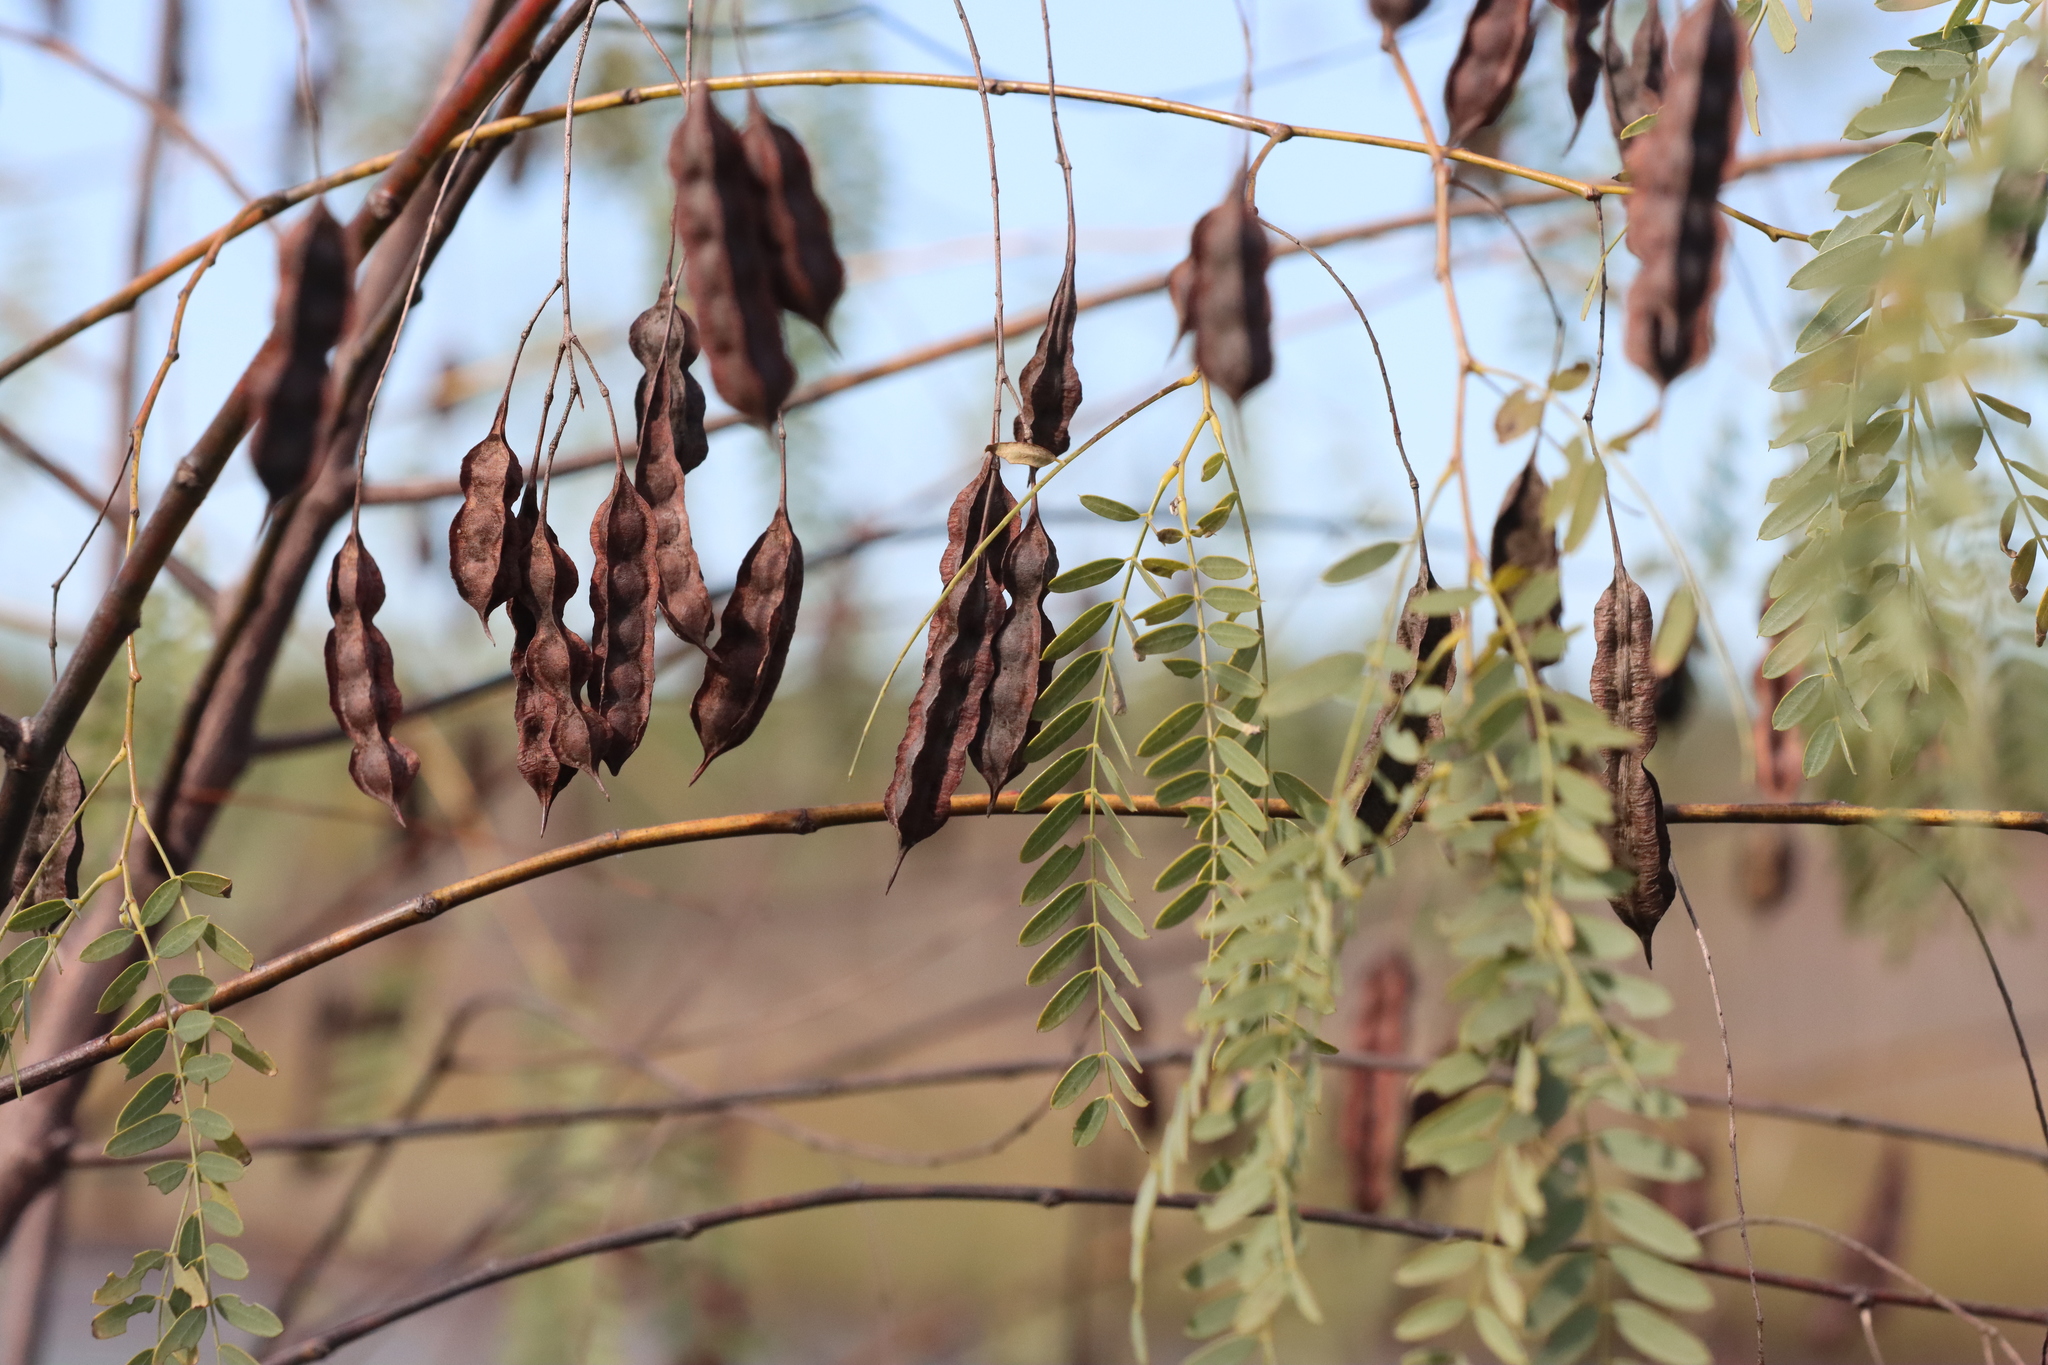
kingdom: Plantae
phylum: Tracheophyta
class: Magnoliopsida
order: Fabales
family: Fabaceae
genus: Sesbania
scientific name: Sesbania drummondii
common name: Poison-bean
